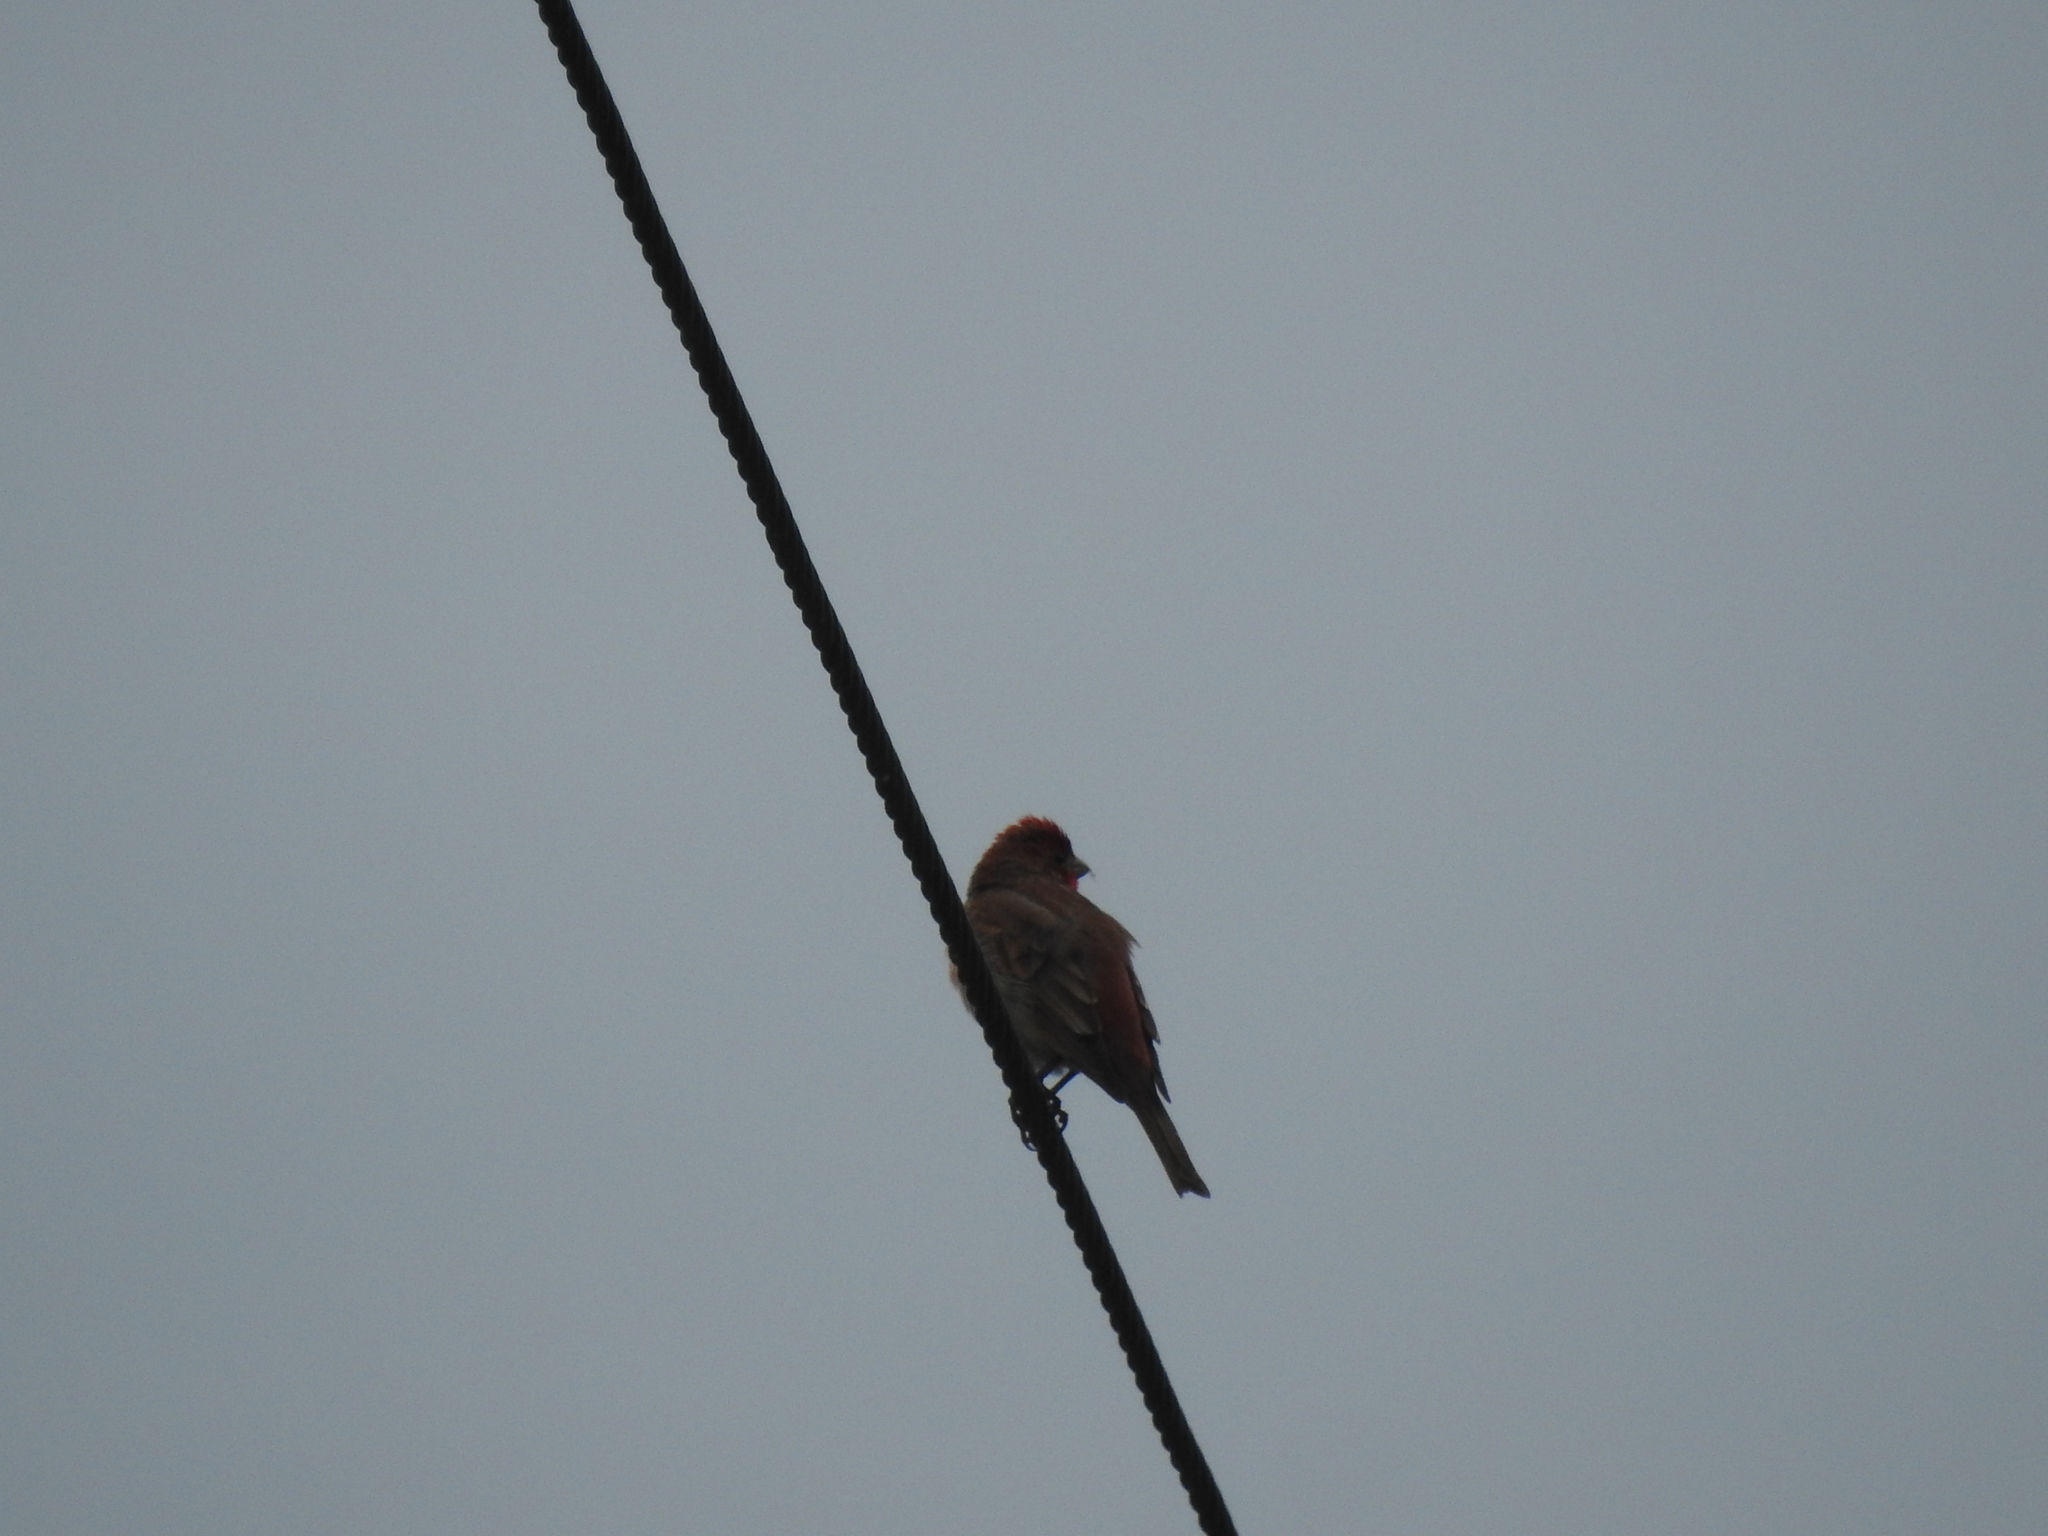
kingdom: Animalia
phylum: Chordata
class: Aves
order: Passeriformes
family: Fringillidae
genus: Carpodacus
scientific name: Carpodacus erythrinus
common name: Common rosefinch
